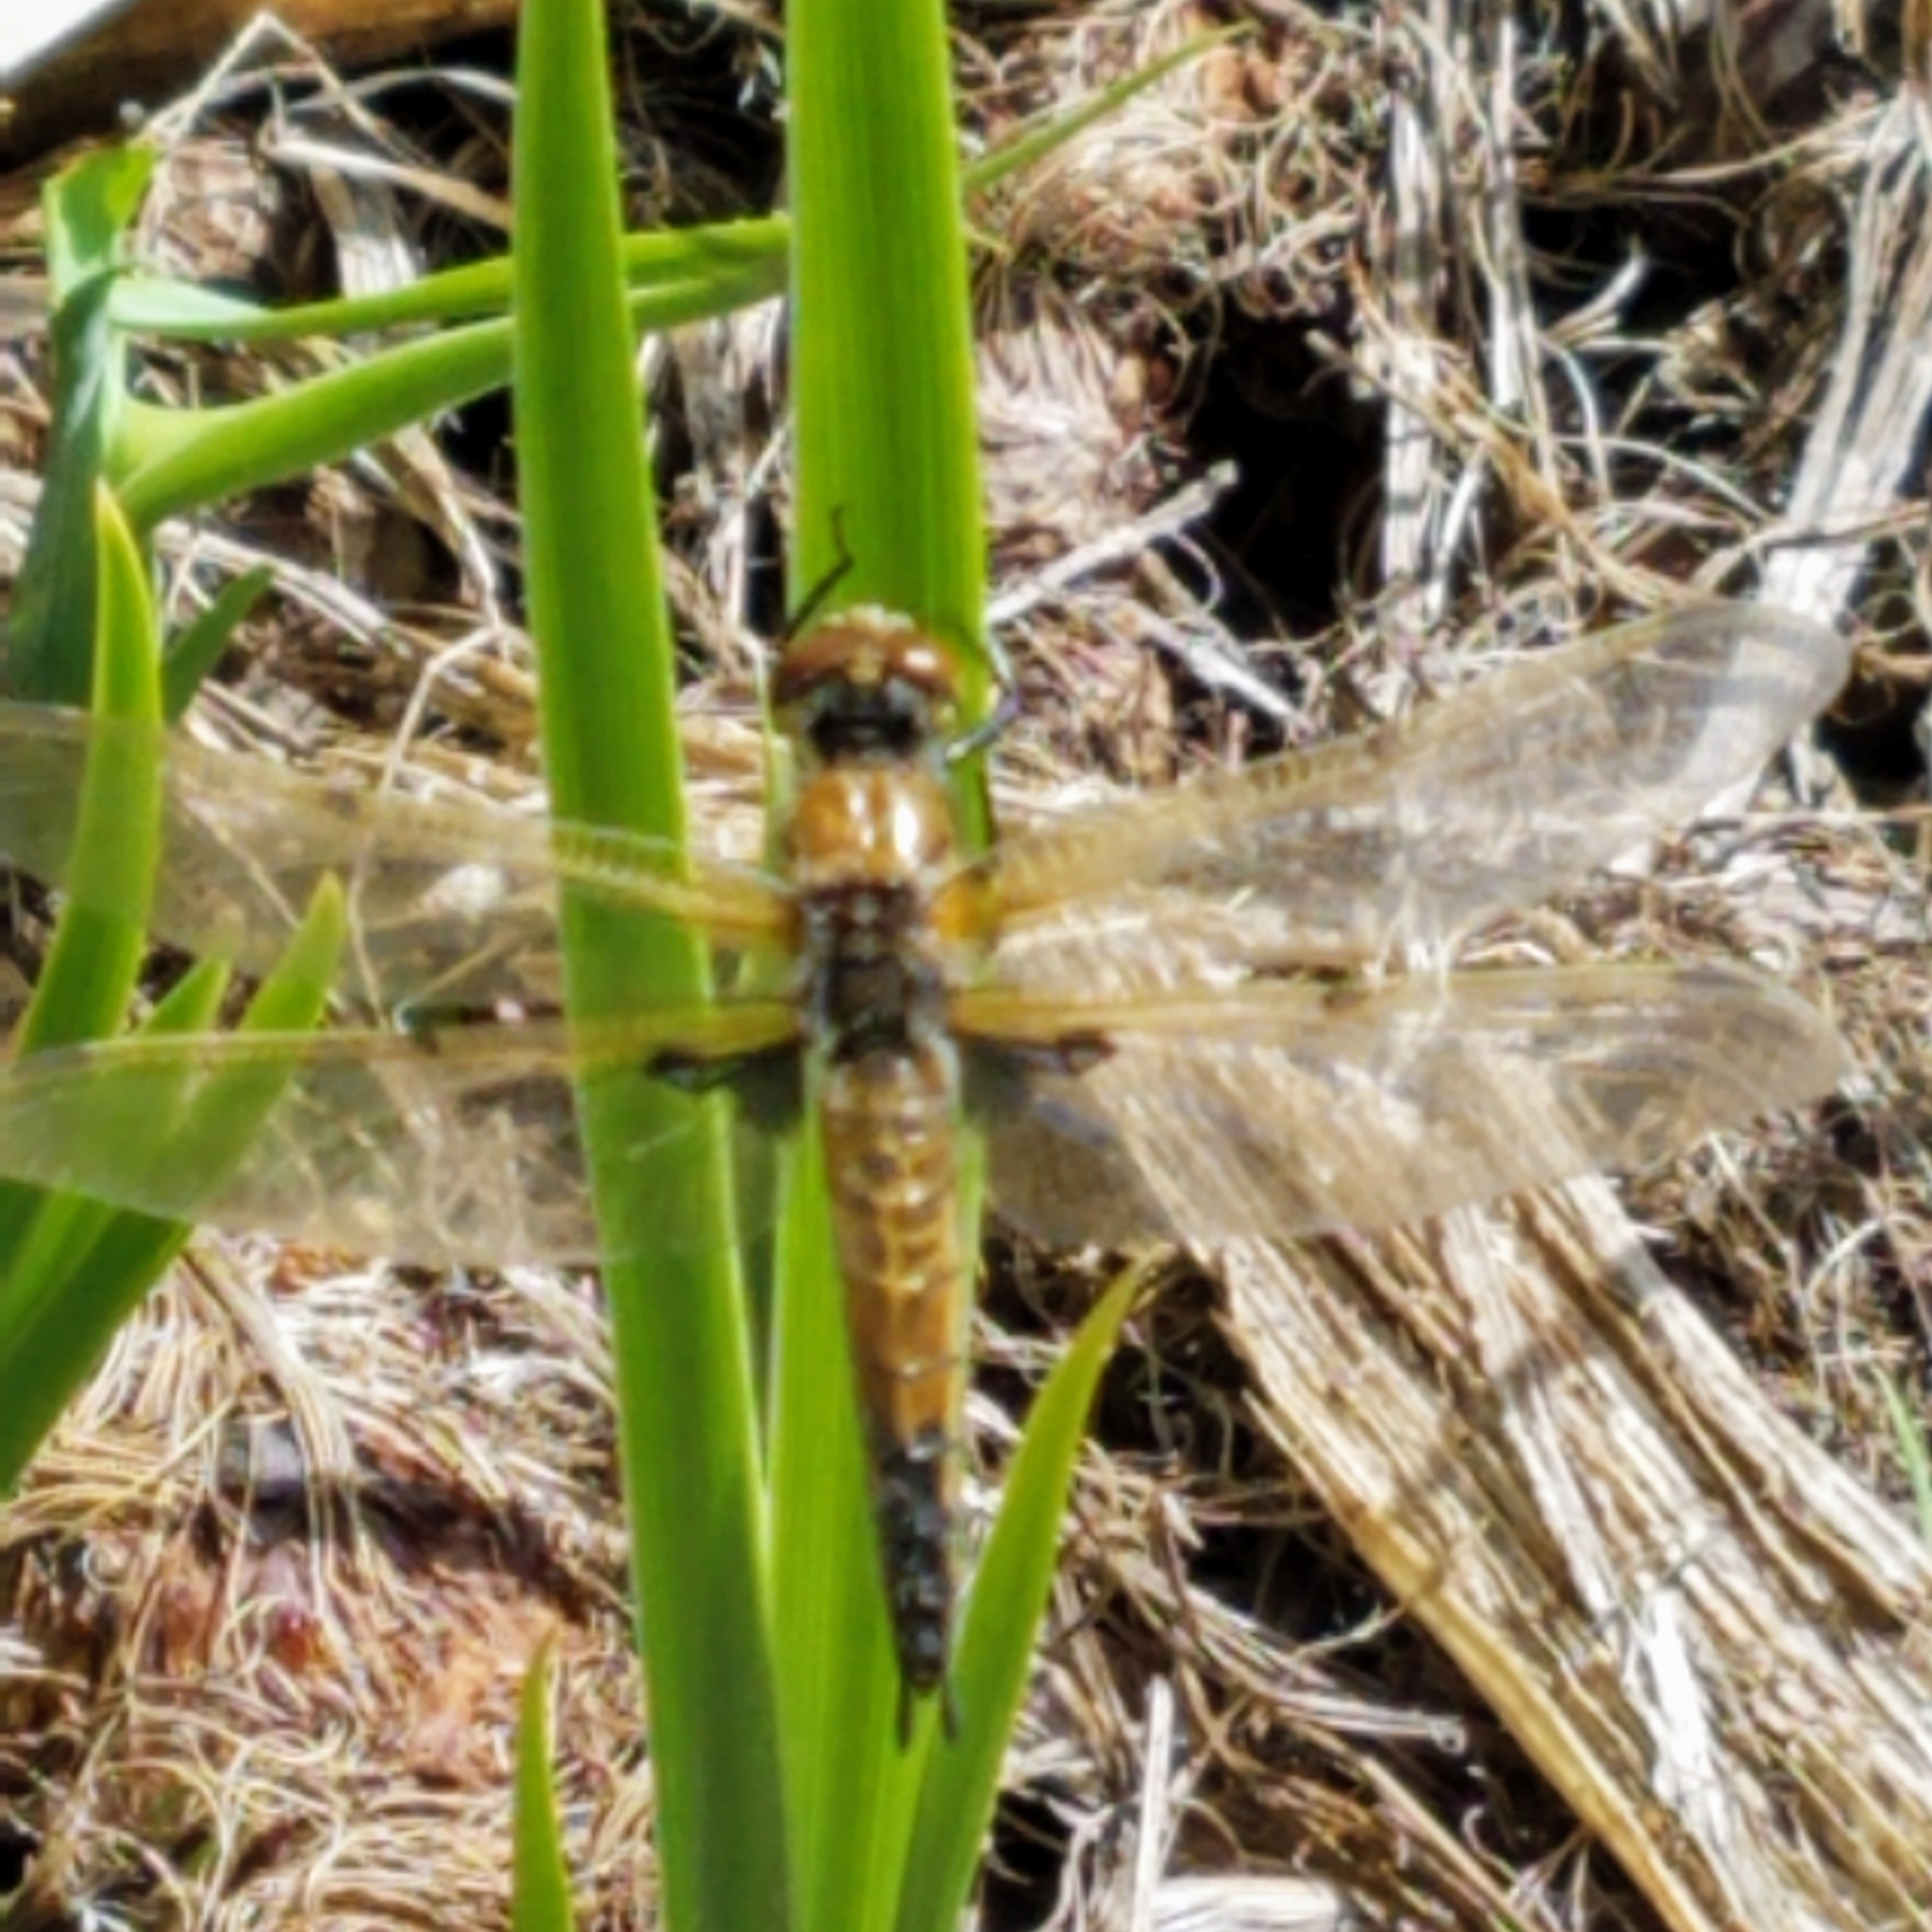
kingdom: Animalia
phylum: Arthropoda
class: Insecta
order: Odonata
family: Libellulidae
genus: Libellula
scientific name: Libellula quadrimaculata
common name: Four-spotted chaser
